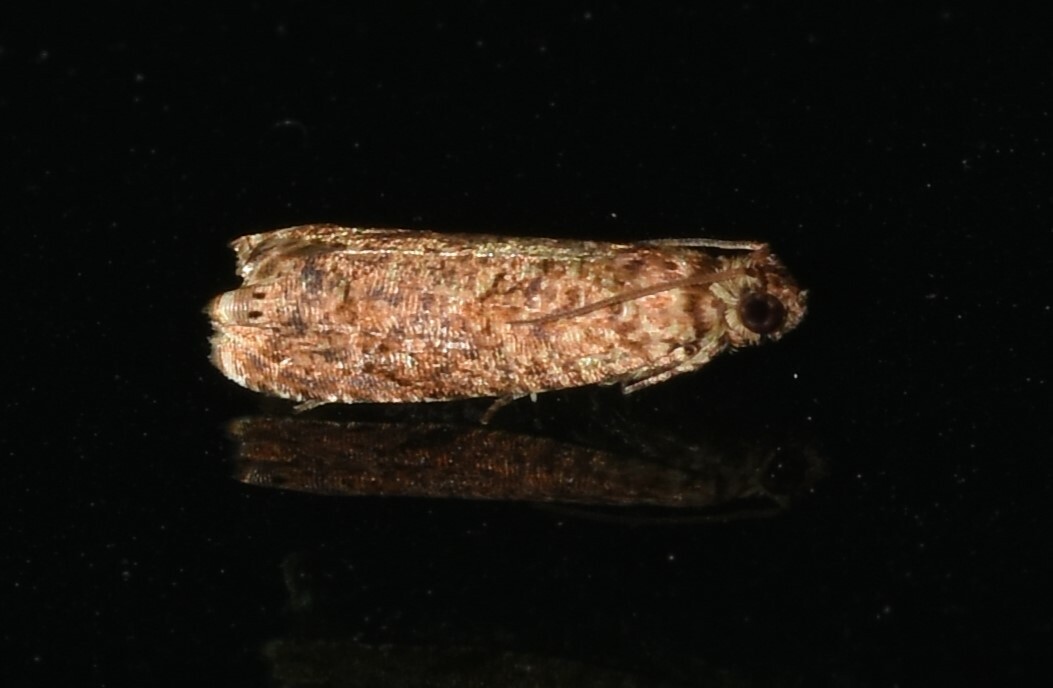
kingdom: Animalia
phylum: Arthropoda
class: Insecta
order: Lepidoptera
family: Tortricidae
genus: Episimus
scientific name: Episimus argutana
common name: Sumac leaftier moth
